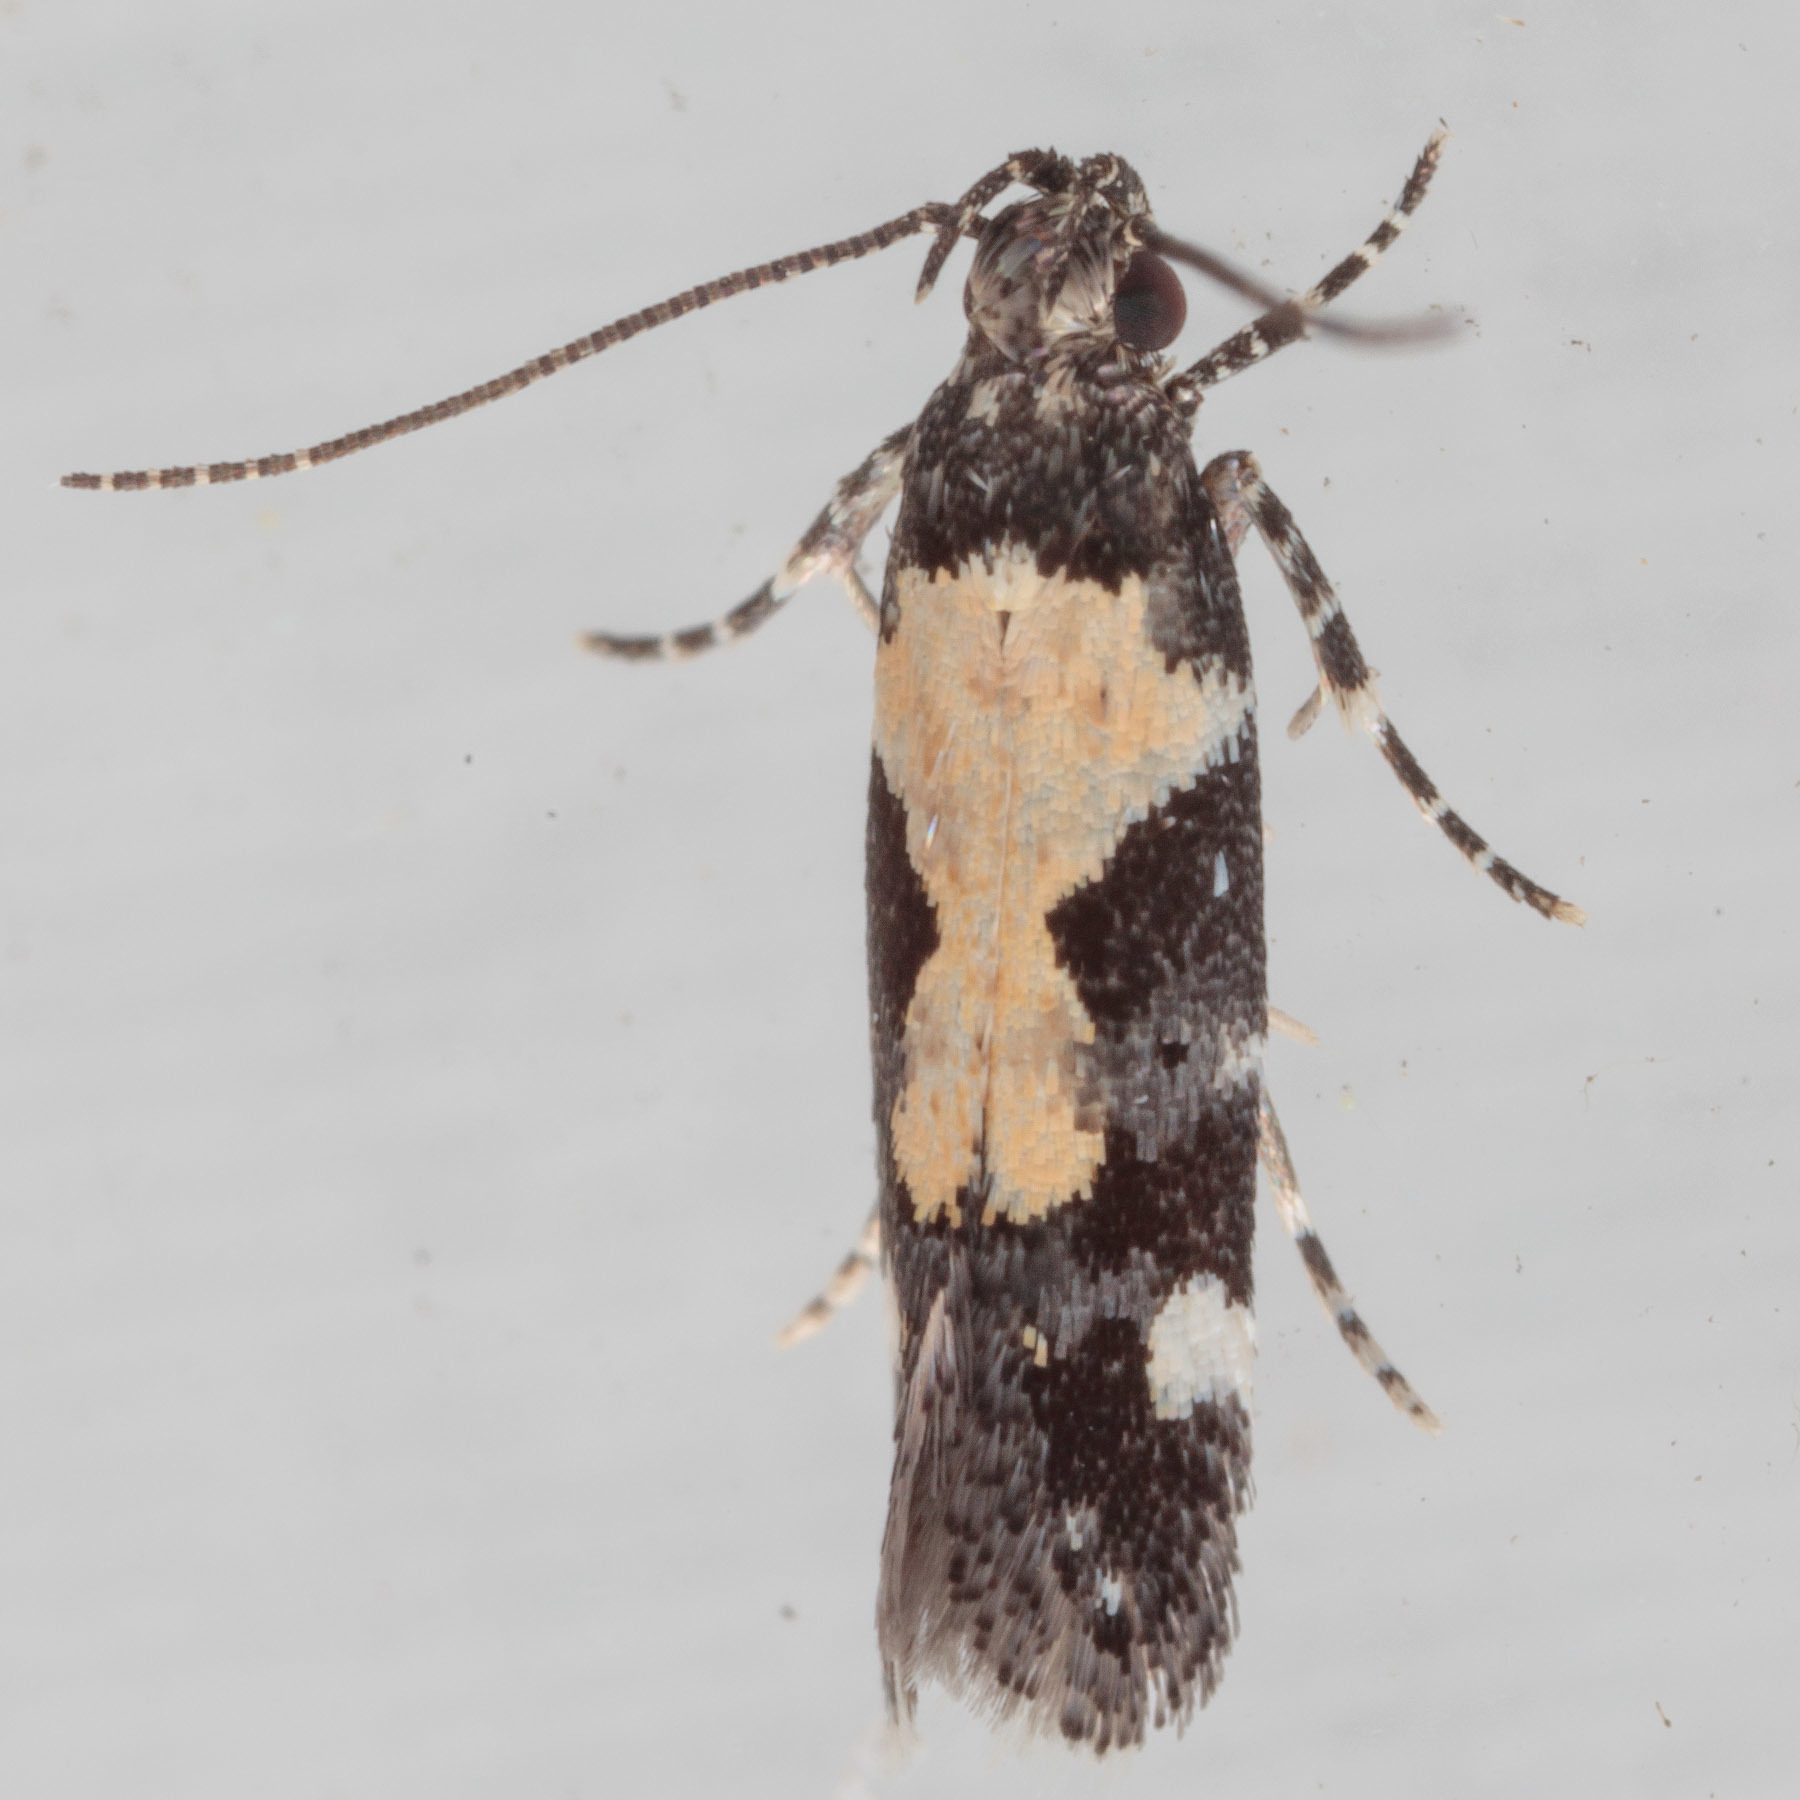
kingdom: Animalia
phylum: Arthropoda
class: Insecta
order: Lepidoptera
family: Gelechiidae
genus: Stegasta
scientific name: Stegasta bosqueella
